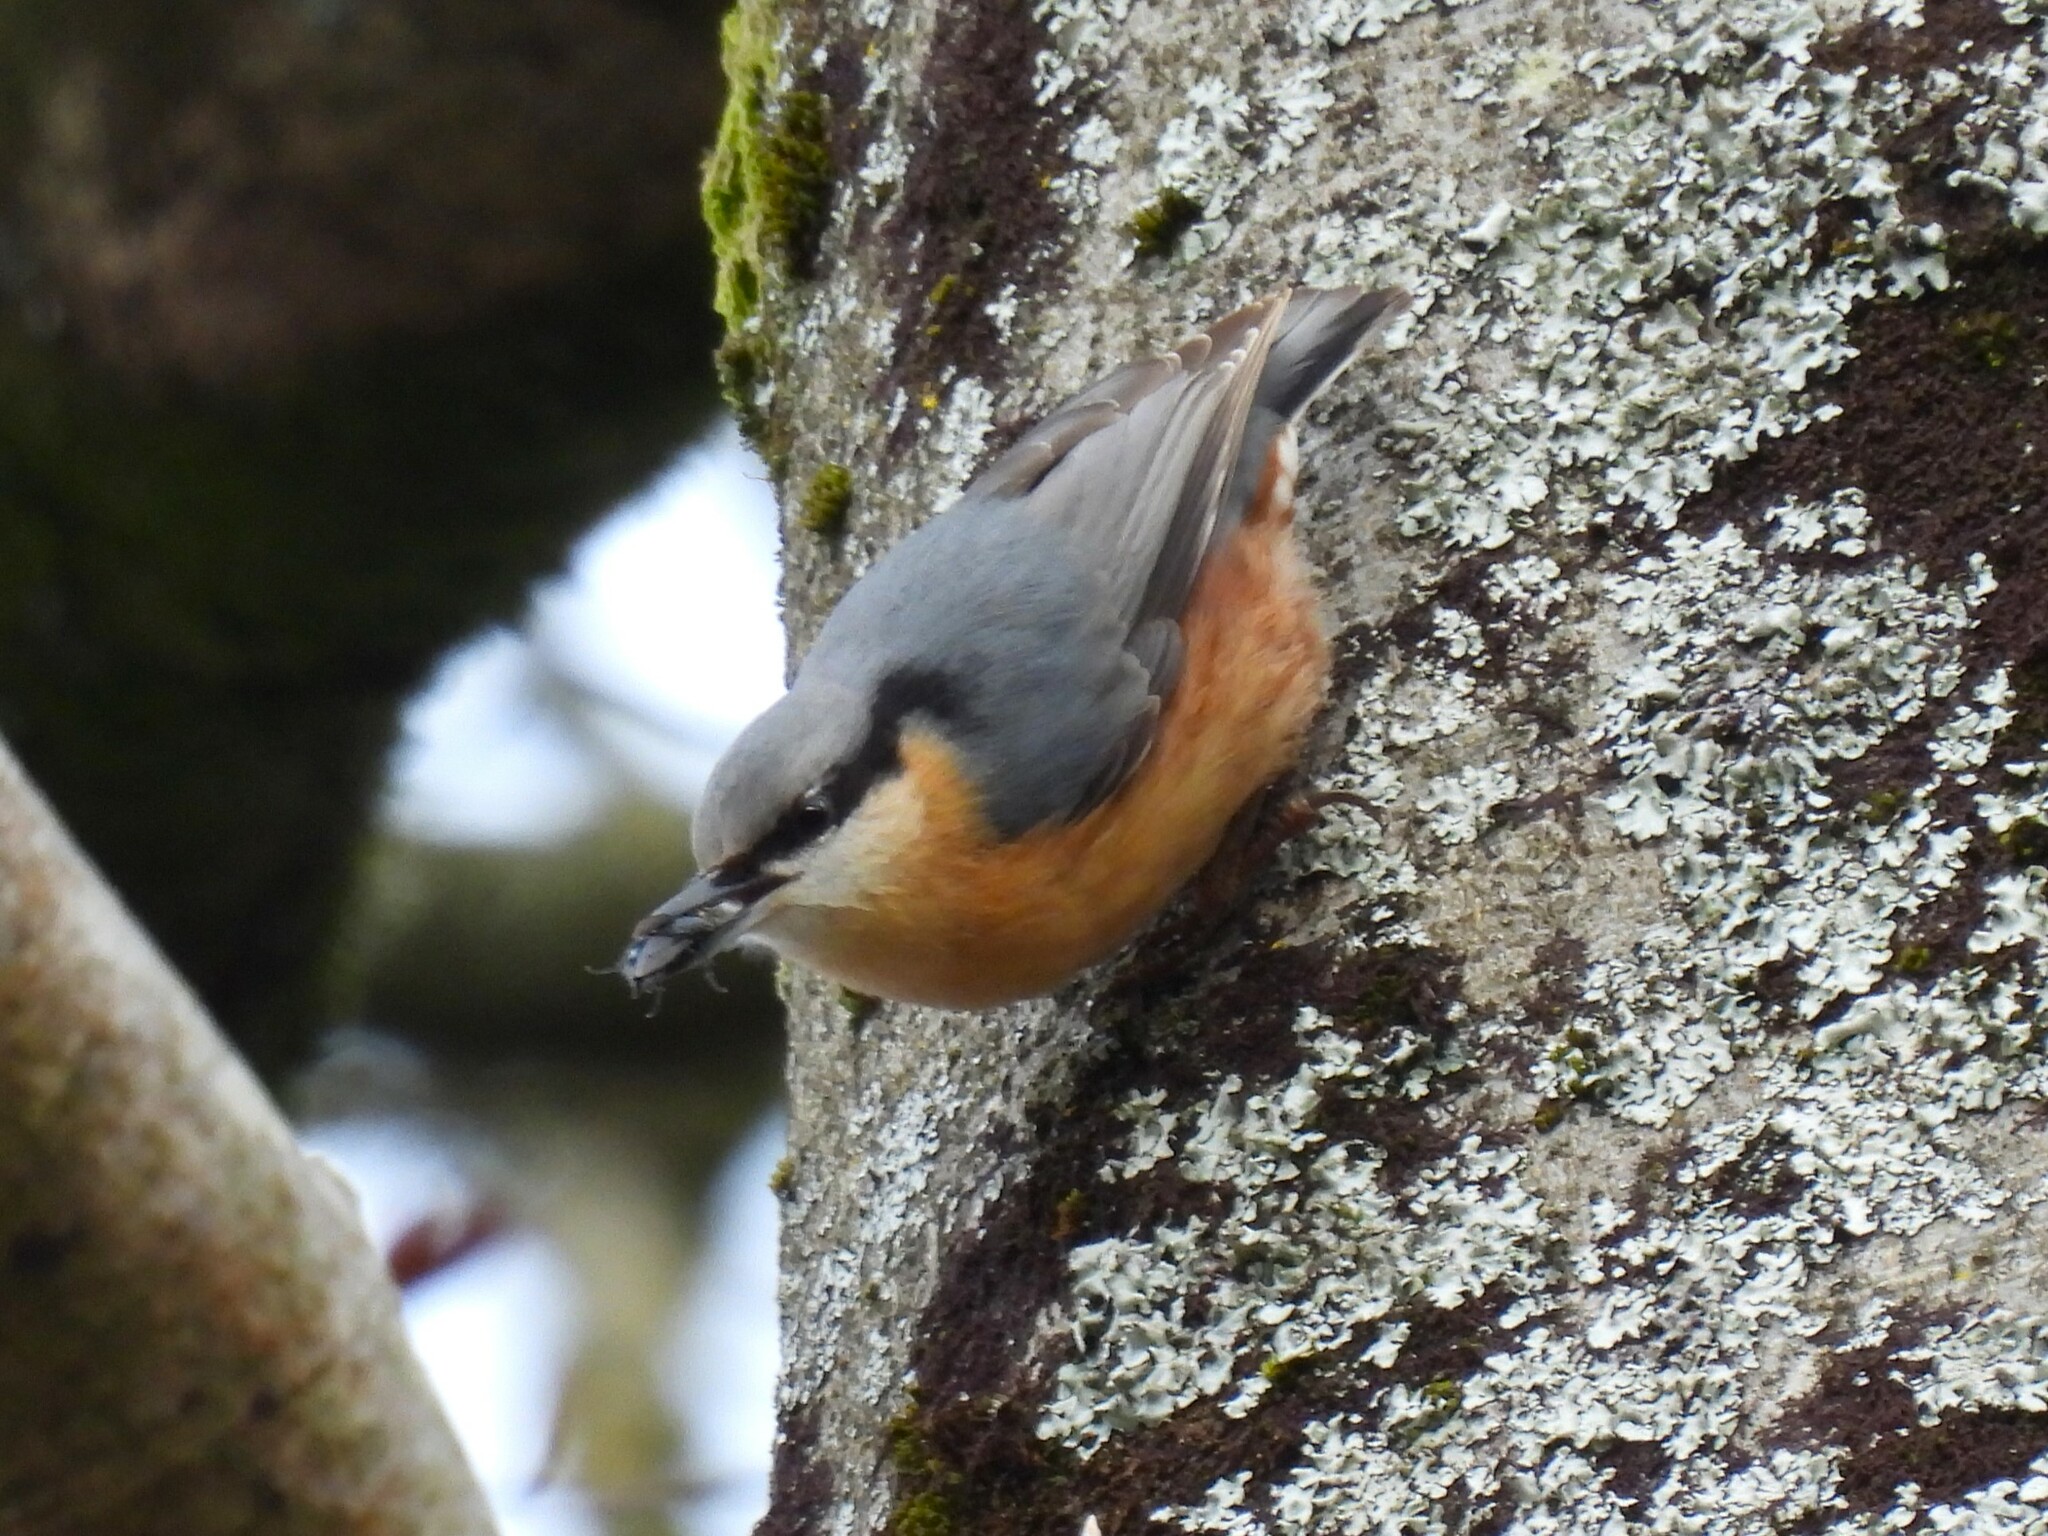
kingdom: Animalia
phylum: Chordata
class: Aves
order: Passeriformes
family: Sittidae
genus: Sitta
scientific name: Sitta europaea
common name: Eurasian nuthatch
